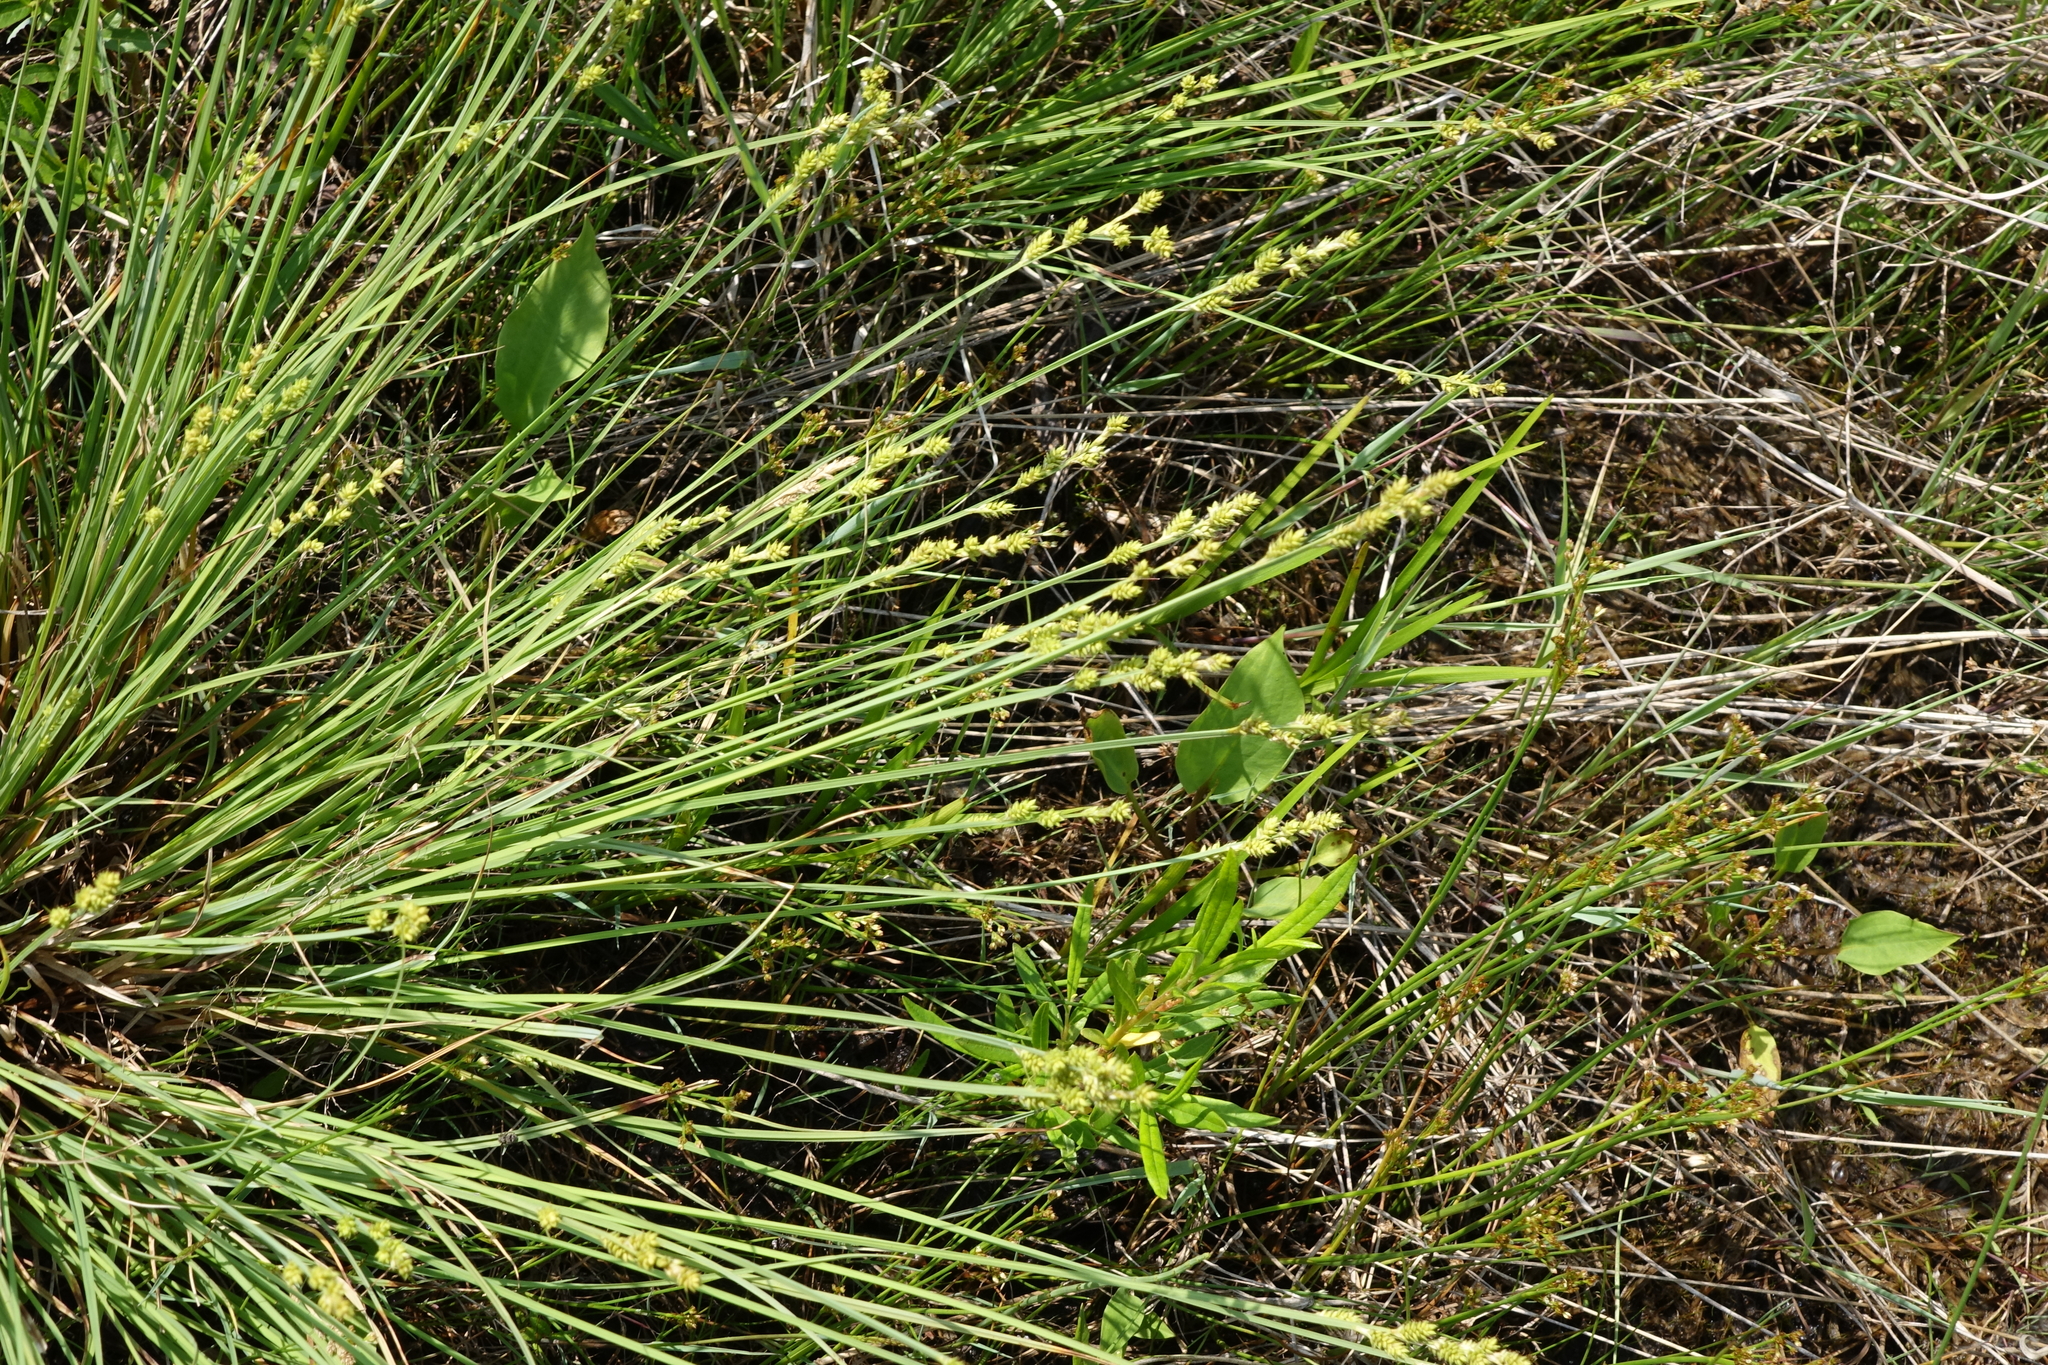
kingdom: Plantae
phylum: Tracheophyta
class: Liliopsida
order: Poales
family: Cyperaceae
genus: Carex
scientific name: Carex canescens
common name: White sedge
